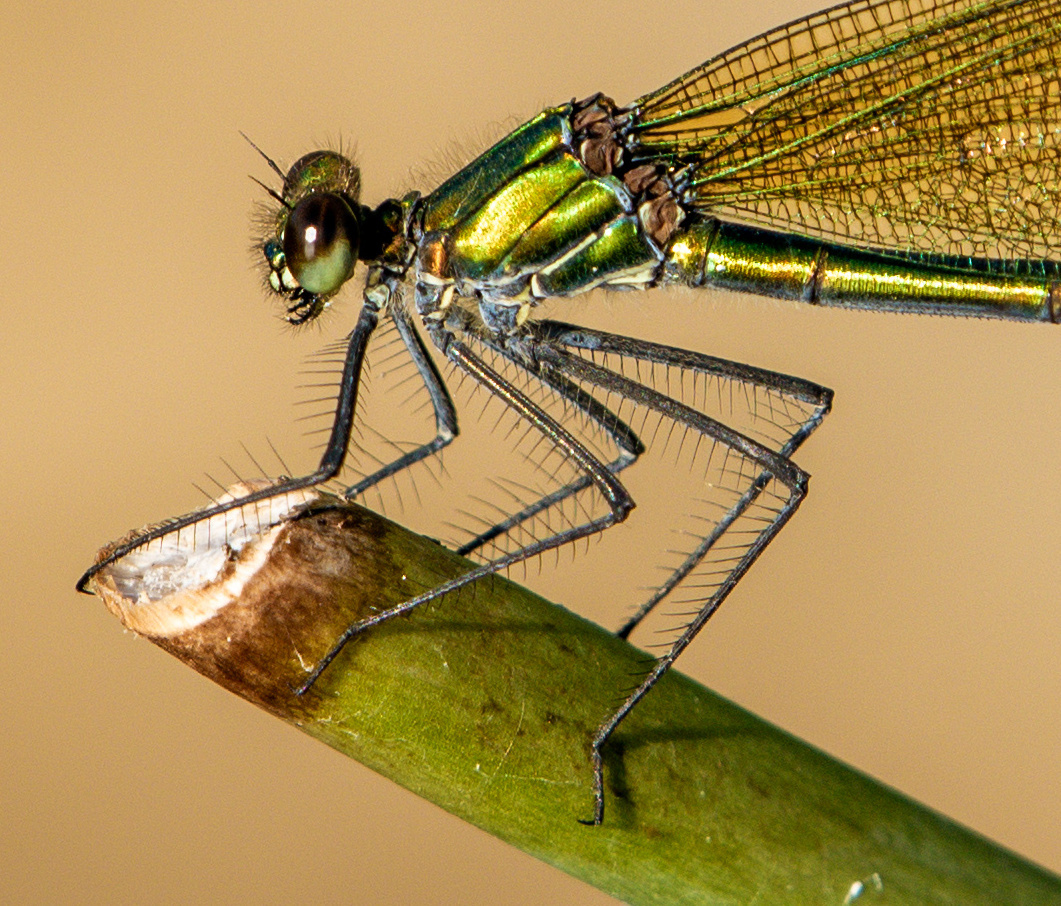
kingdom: Animalia
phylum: Arthropoda
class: Insecta
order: Odonata
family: Calopterygidae
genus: Calopteryx
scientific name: Calopteryx splendens
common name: Banded demoiselle
